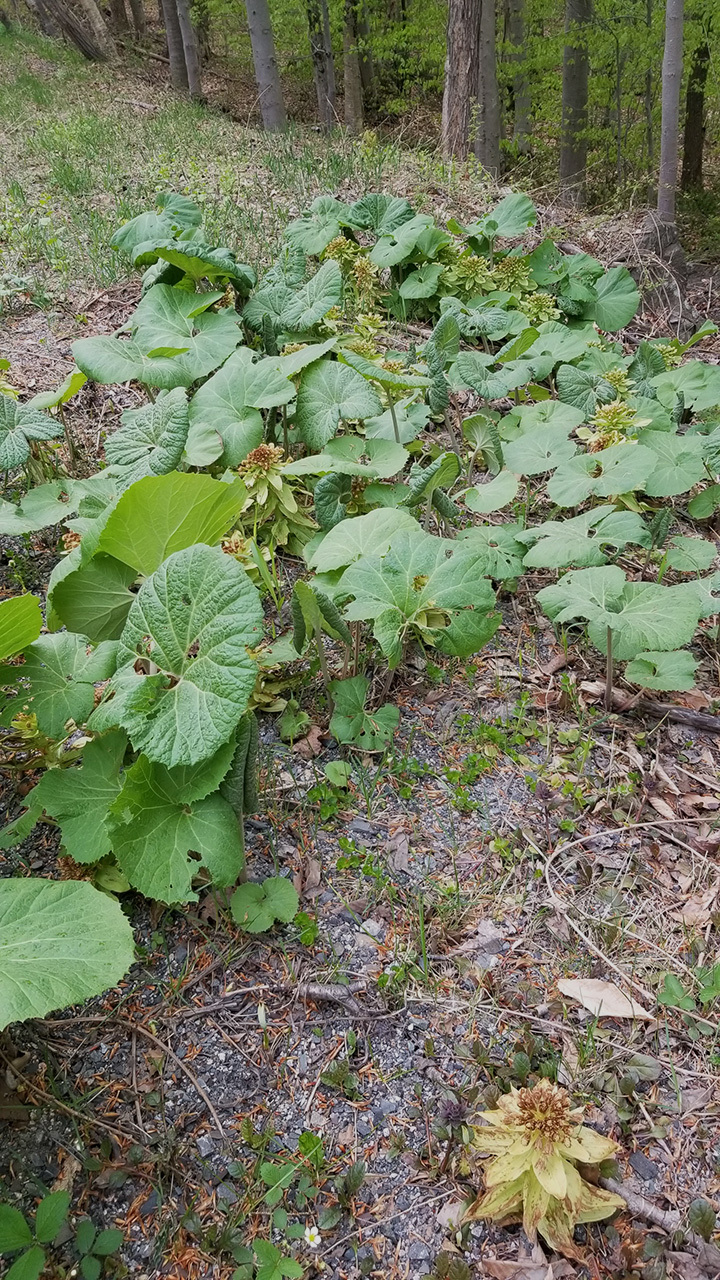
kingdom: Plantae
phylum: Tracheophyta
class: Magnoliopsida
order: Asterales
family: Asteraceae
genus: Petasites
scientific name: Petasites japonicus
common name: Giant butterbur
